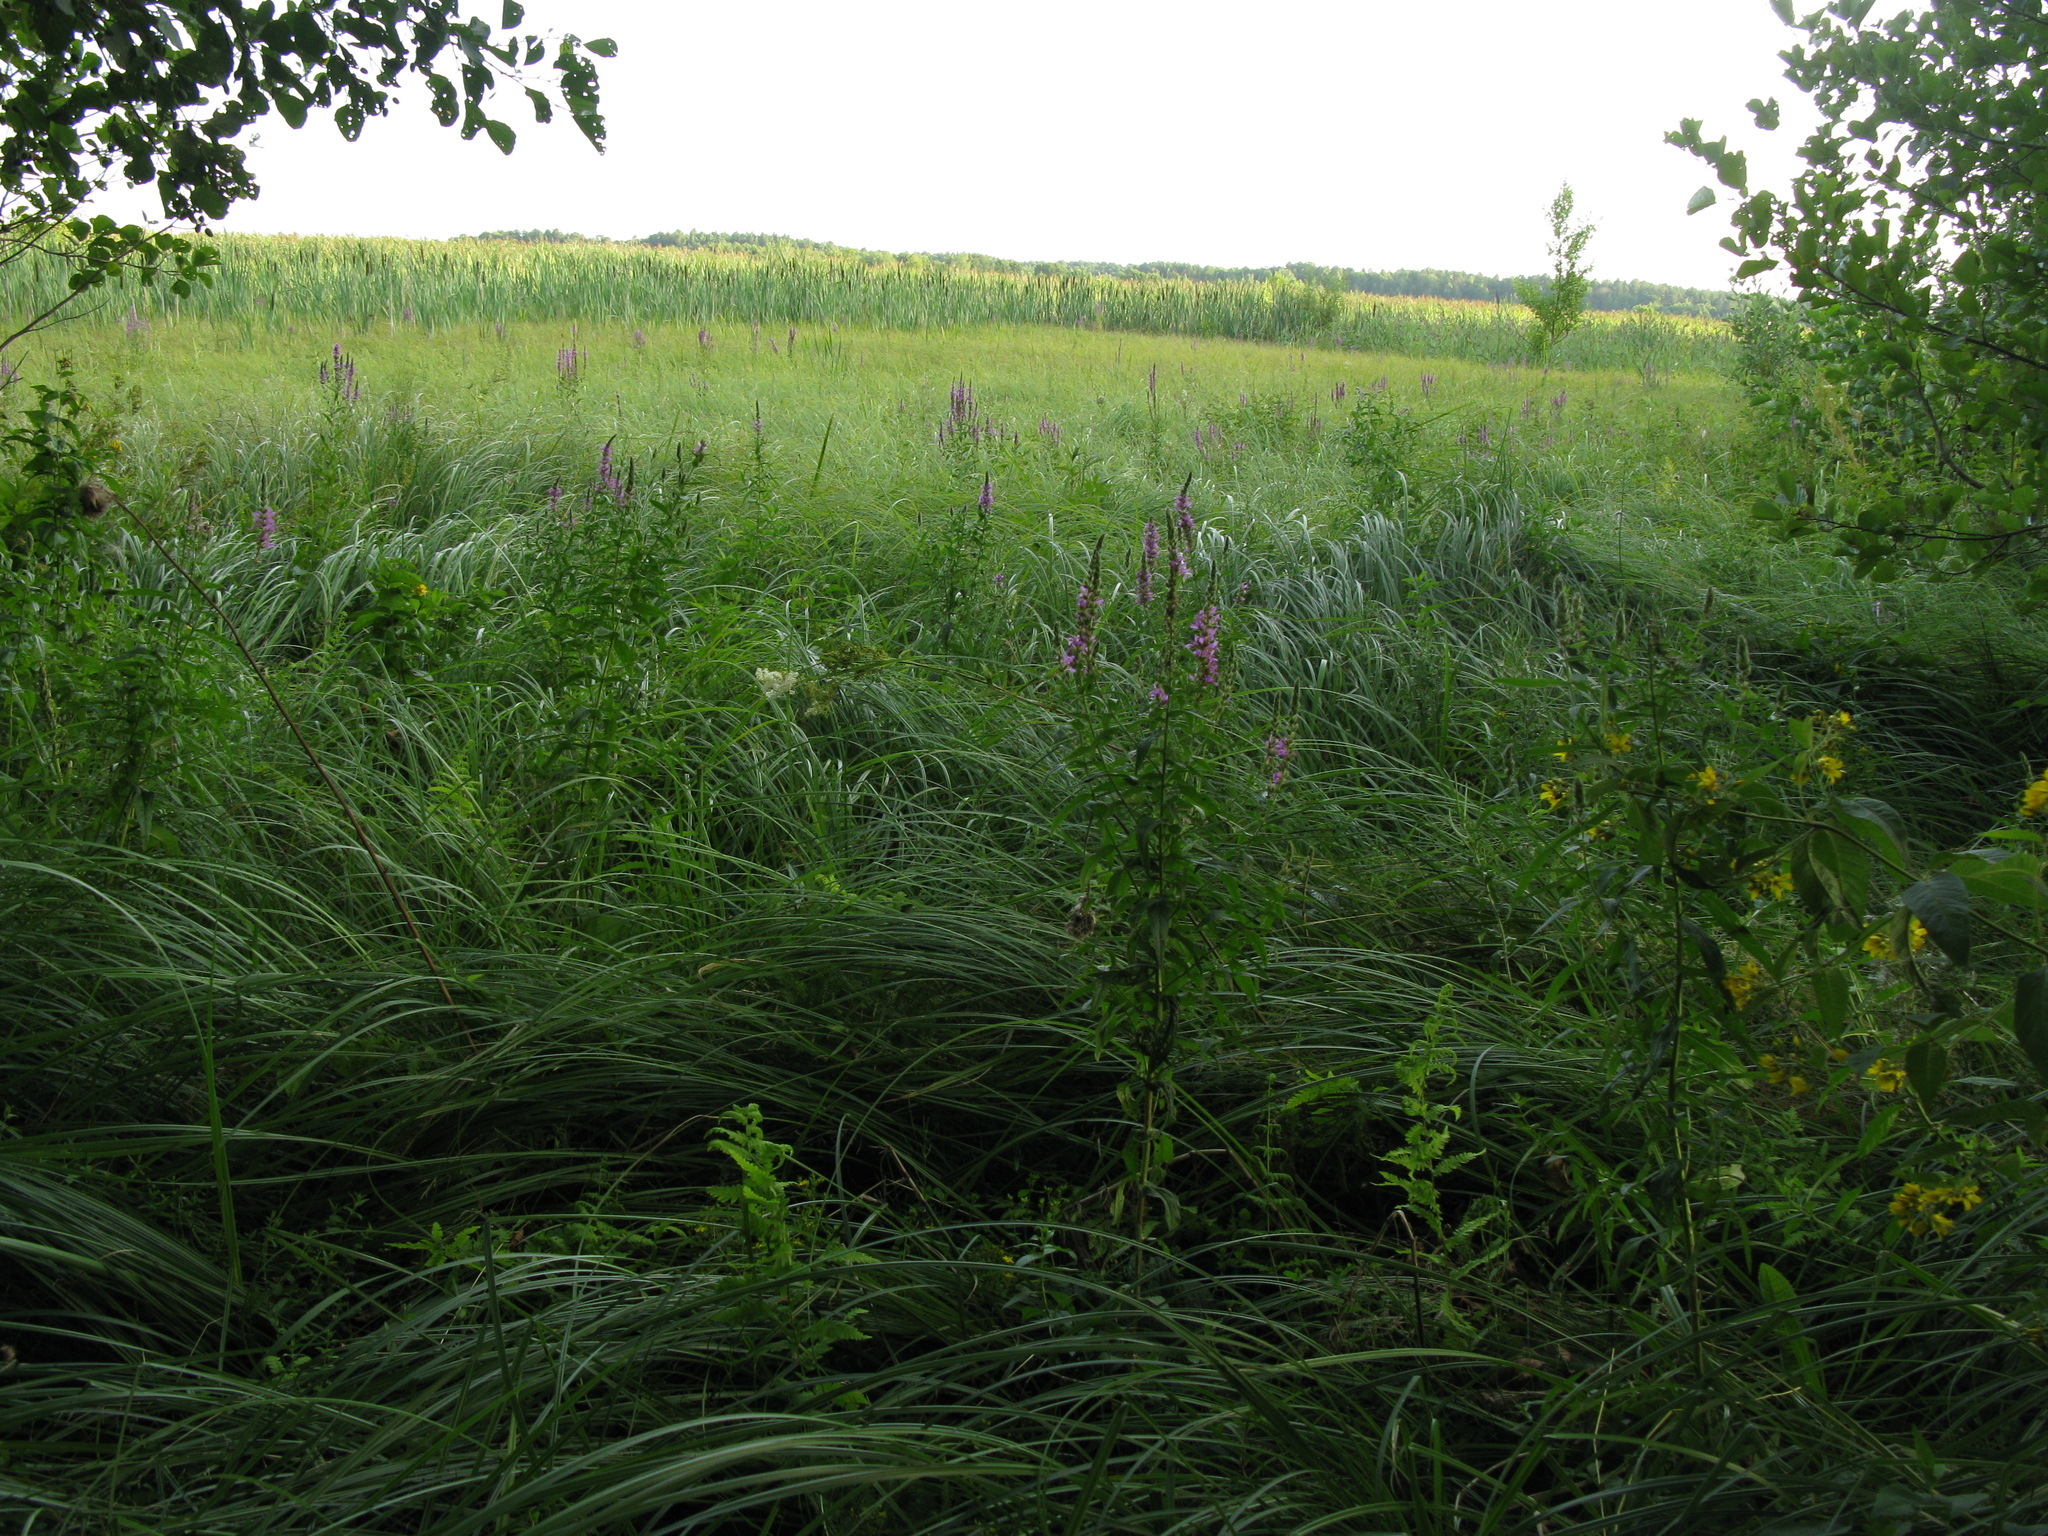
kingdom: Plantae
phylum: Tracheophyta
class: Magnoliopsida
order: Myrtales
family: Lythraceae
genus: Lythrum
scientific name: Lythrum salicaria
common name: Purple loosestrife
